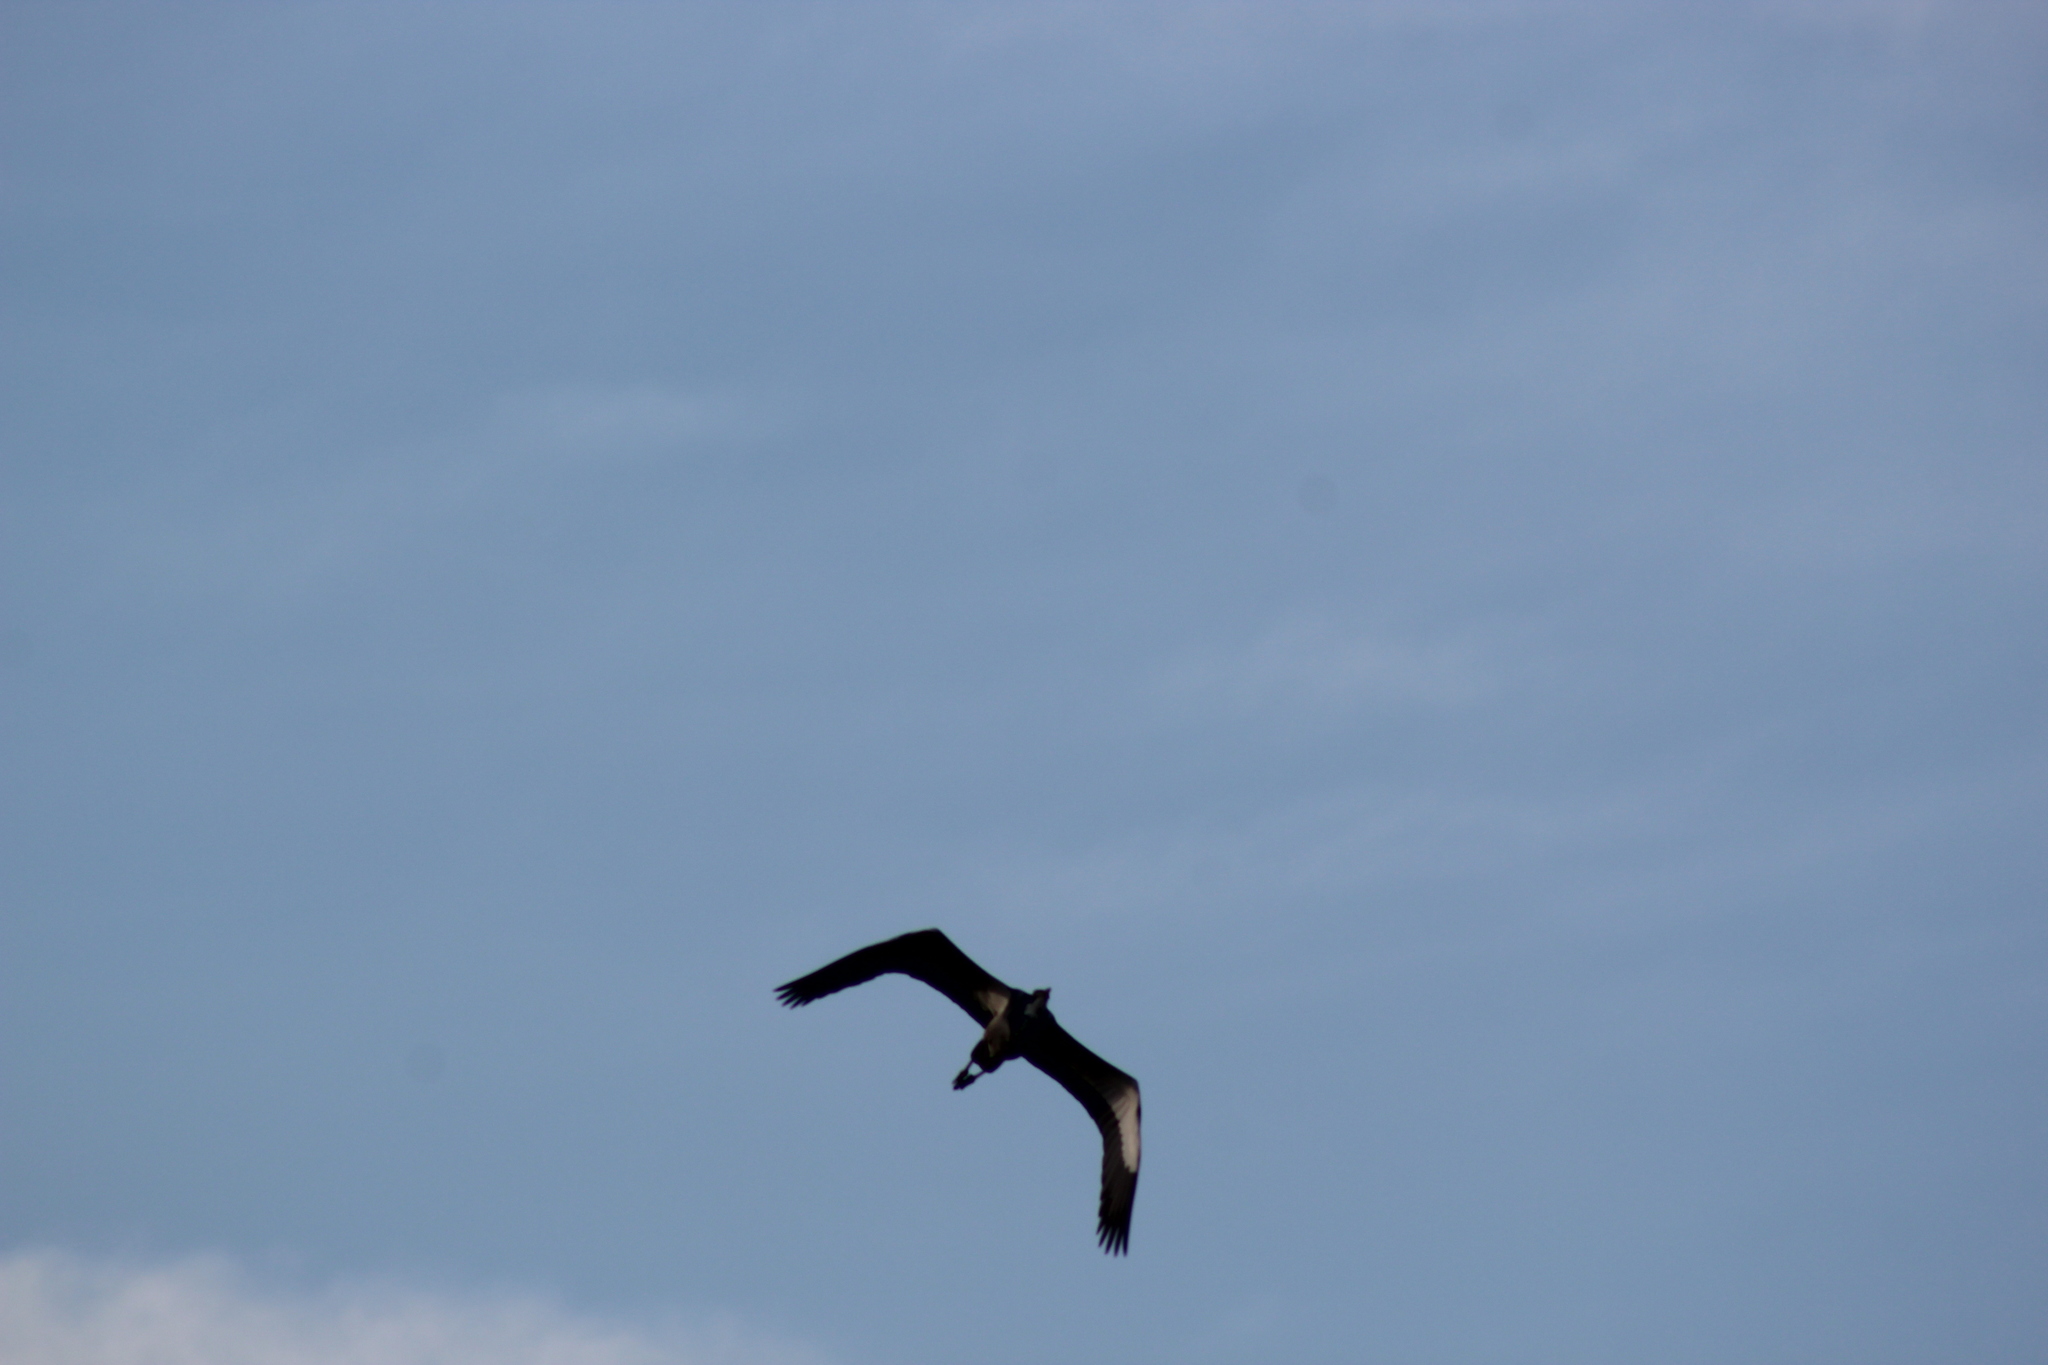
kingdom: Animalia
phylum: Chordata
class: Aves
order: Pelecaniformes
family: Ardeidae
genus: Ardea
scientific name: Ardea melanocephala
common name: Black-headed heron
